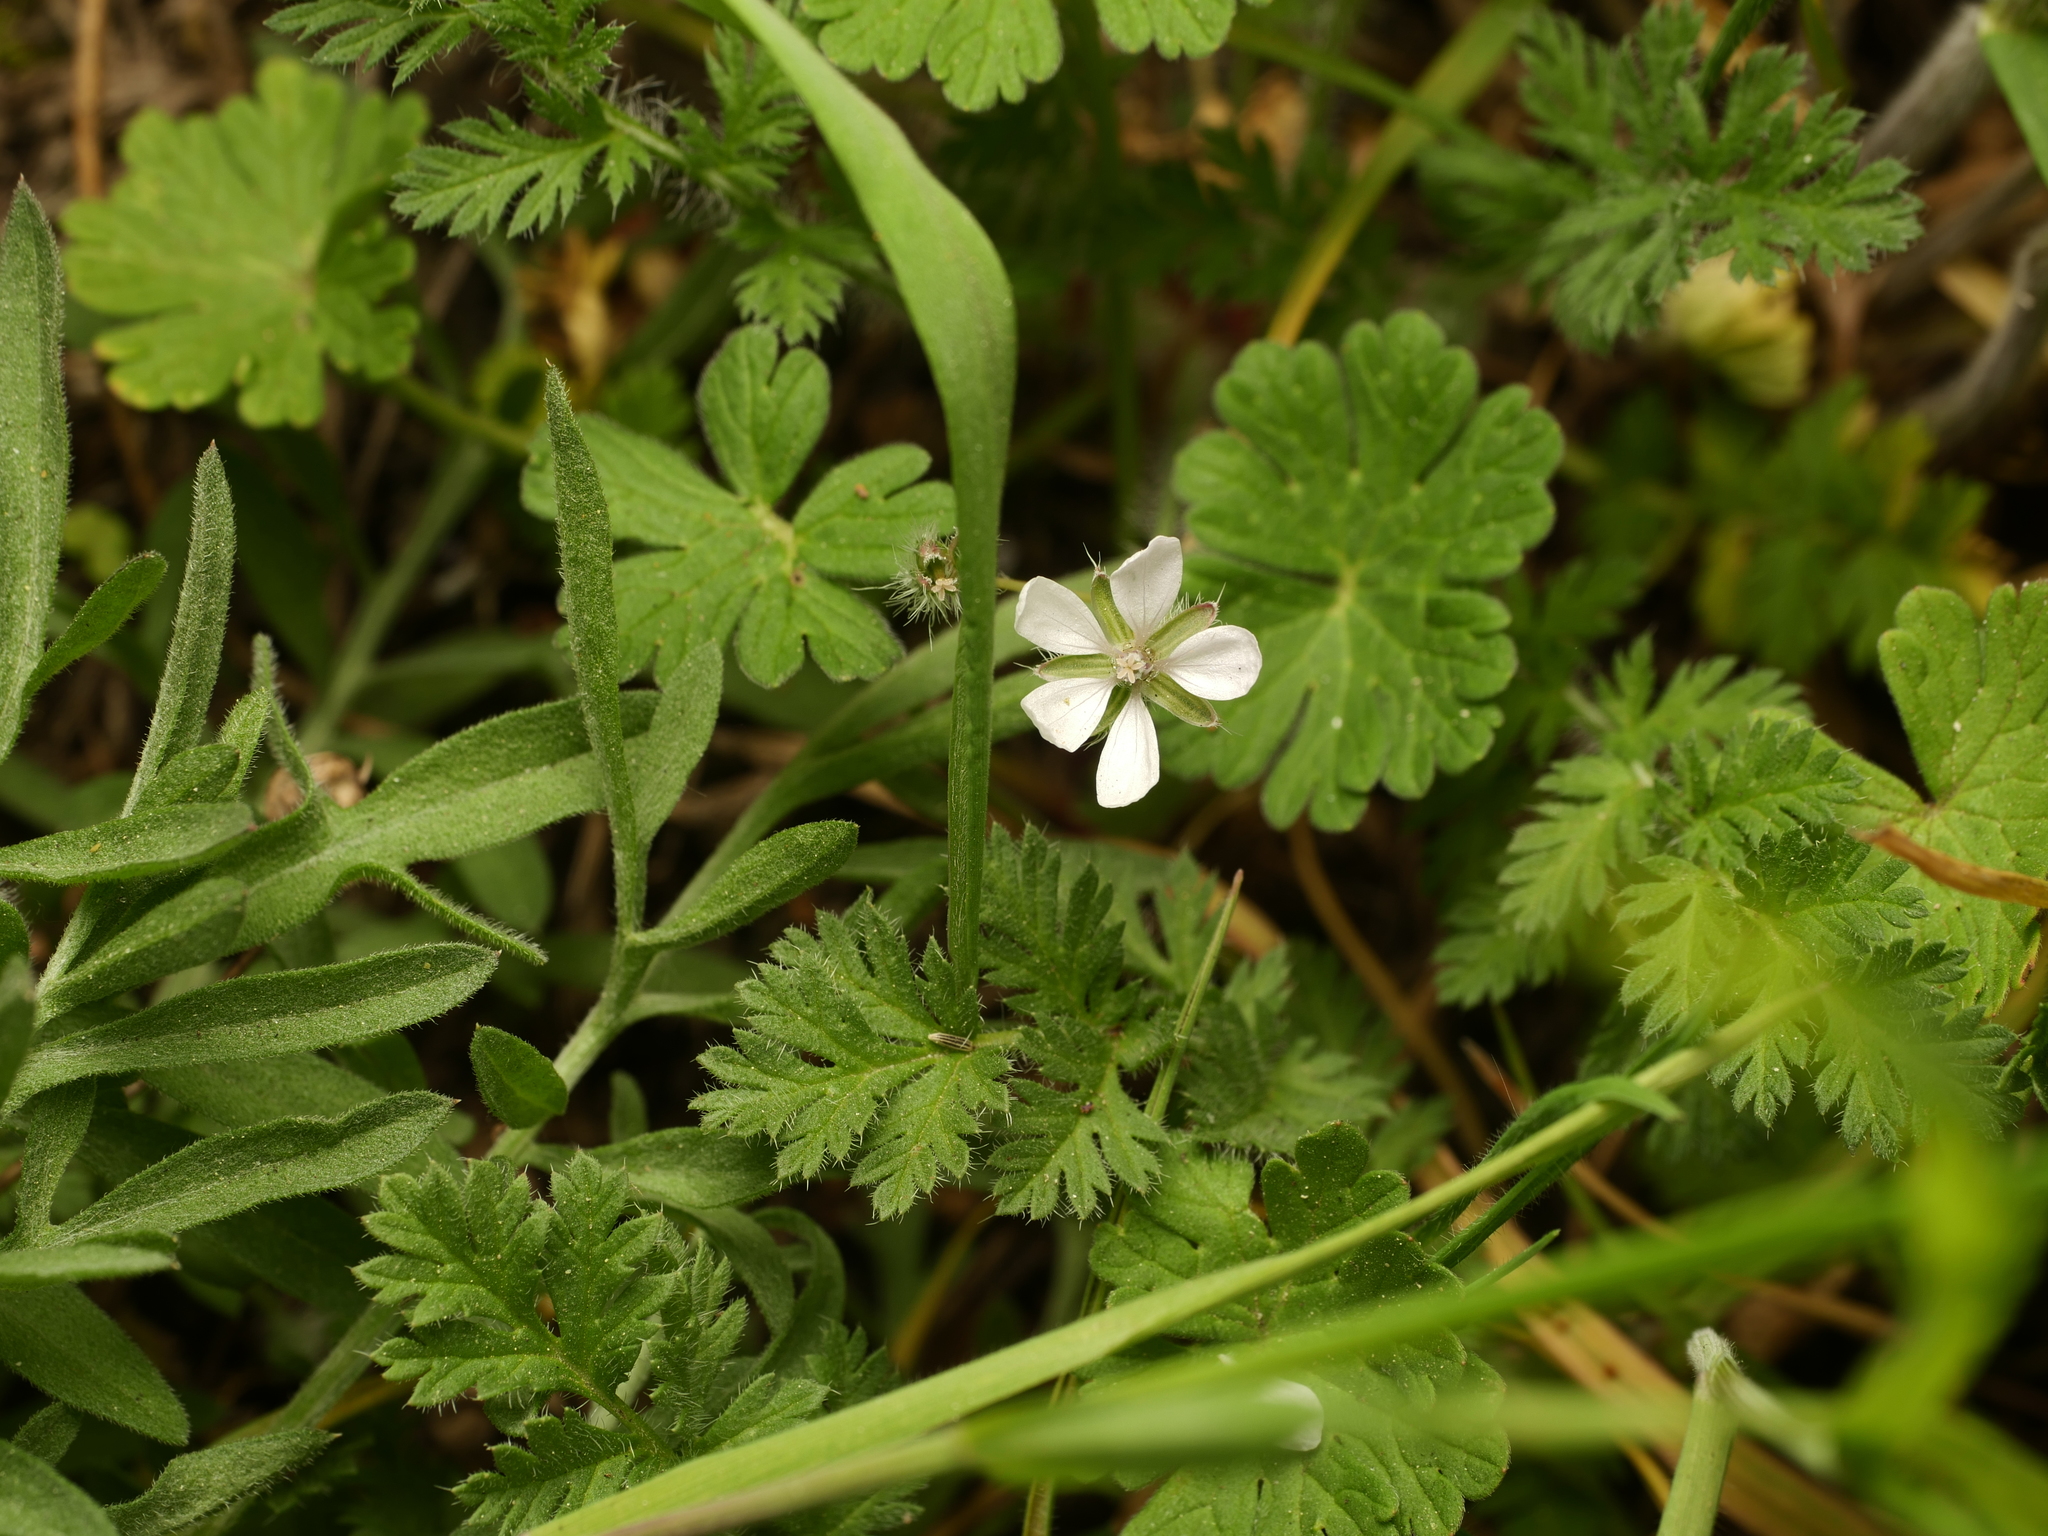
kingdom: Plantae
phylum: Tracheophyta
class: Magnoliopsida
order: Geraniales
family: Geraniaceae
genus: Erodium
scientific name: Erodium cicutarium
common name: Common stork's-bill
